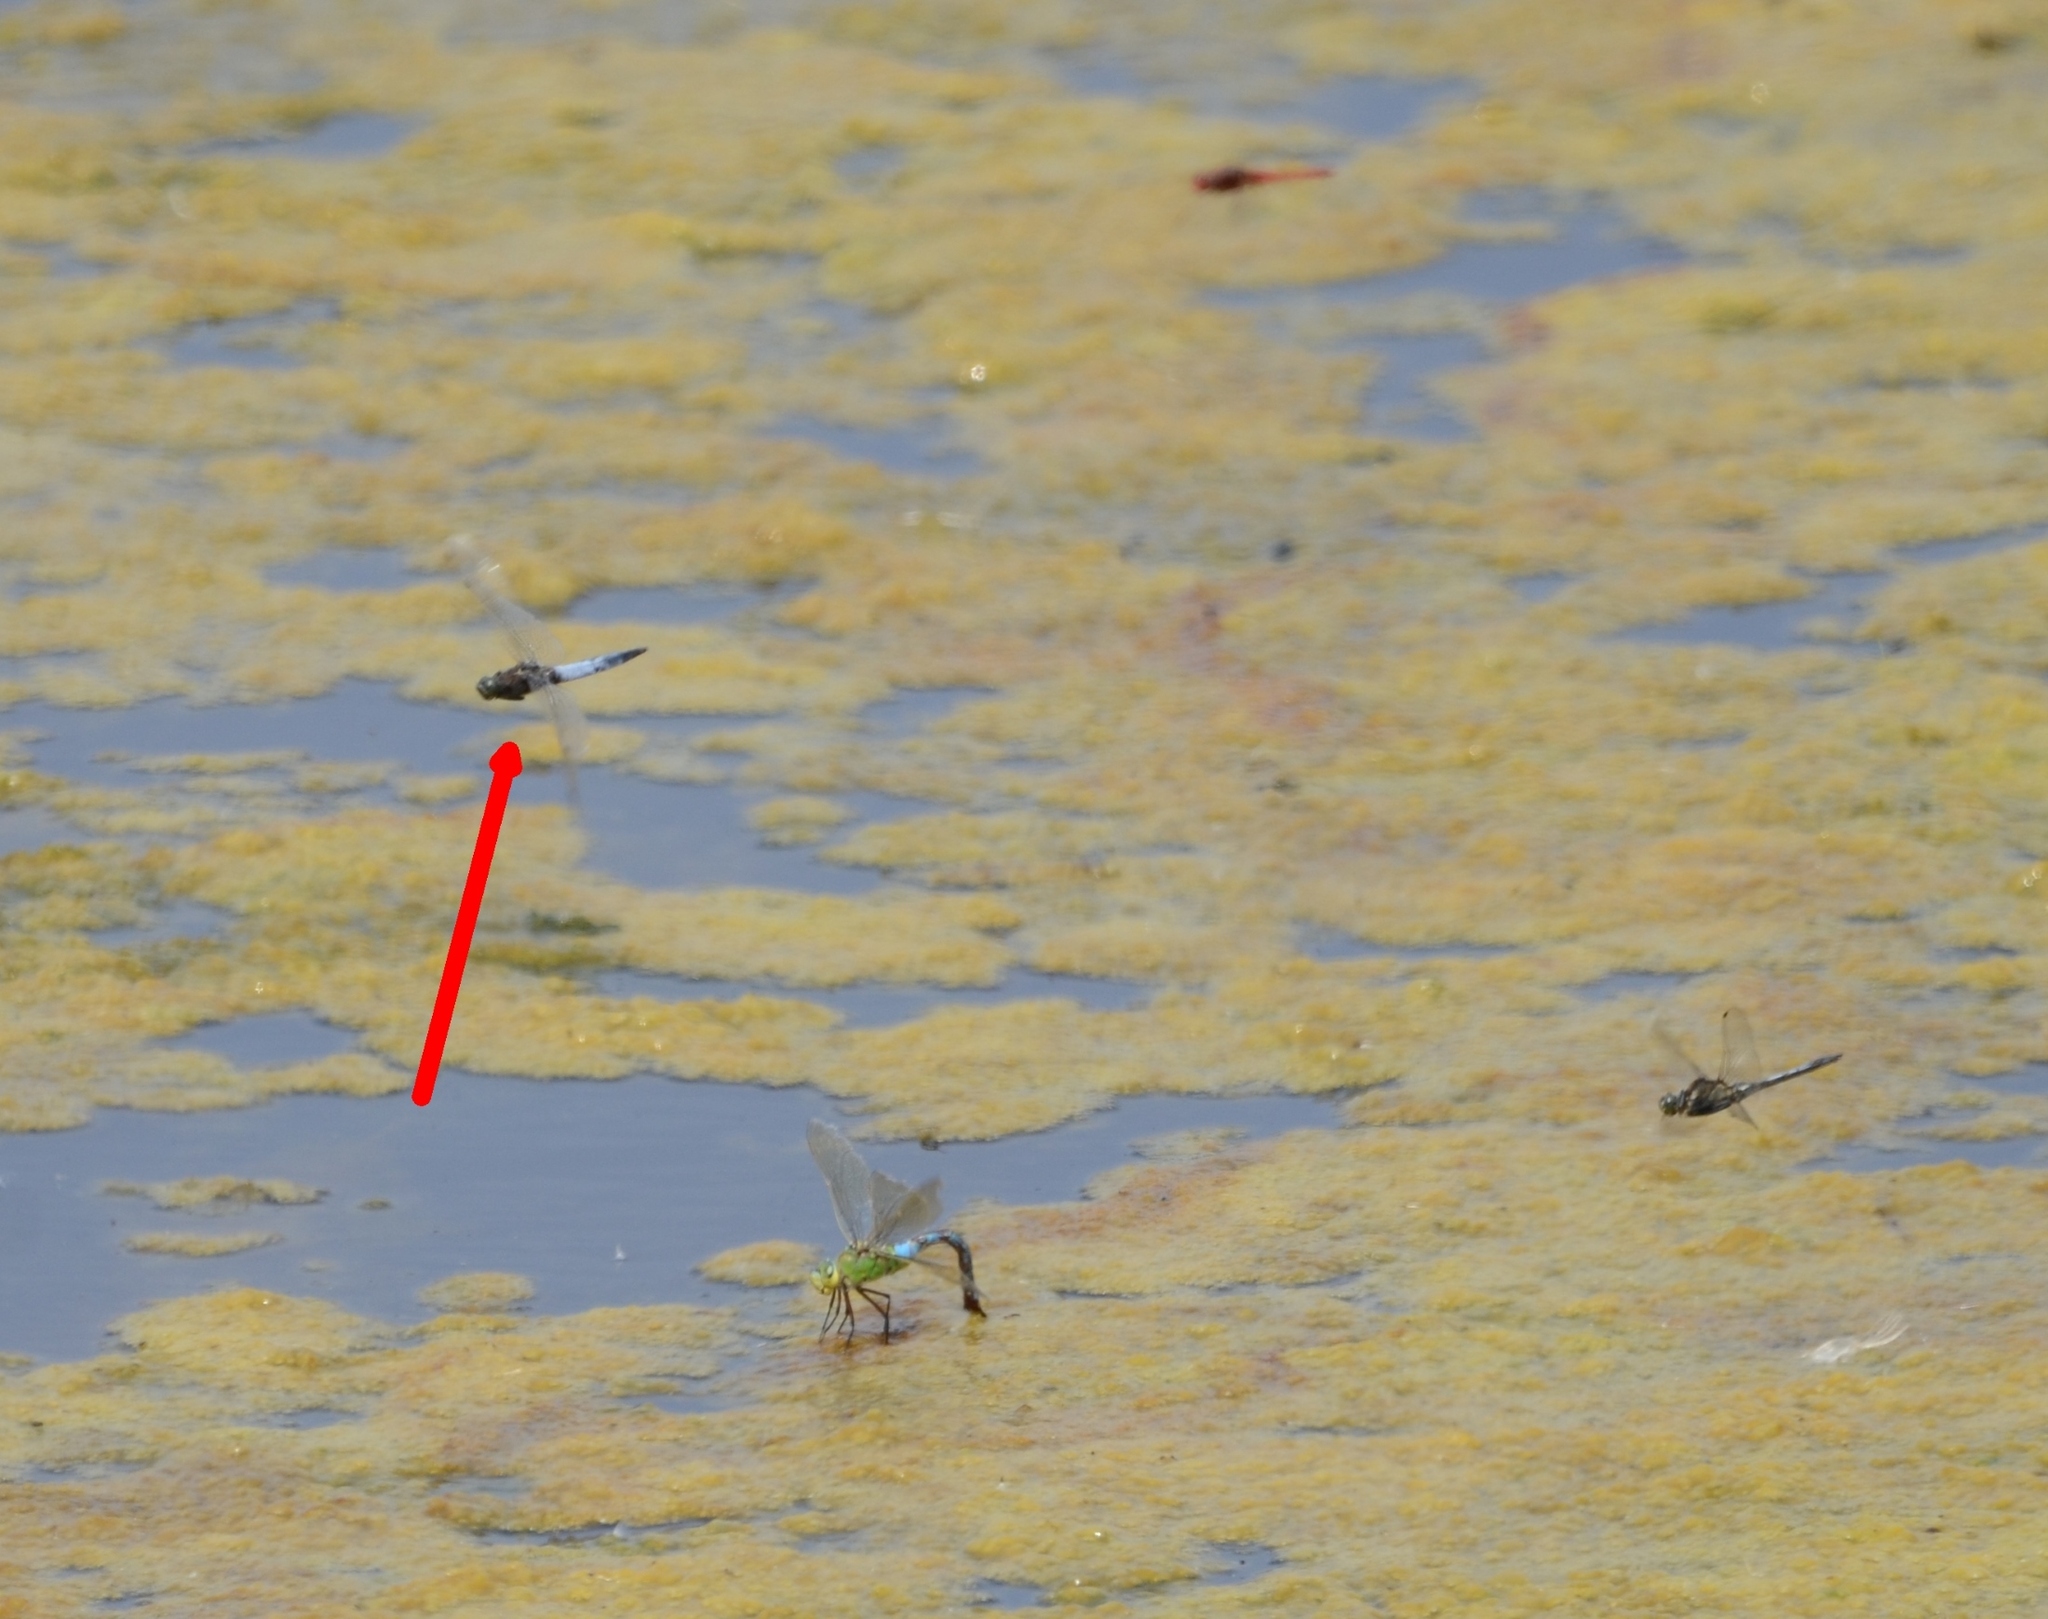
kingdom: Animalia
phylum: Arthropoda
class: Insecta
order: Odonata
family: Libellulidae
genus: Orthetrum
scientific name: Orthetrum cancellatum
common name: Black-tailed skimmer
